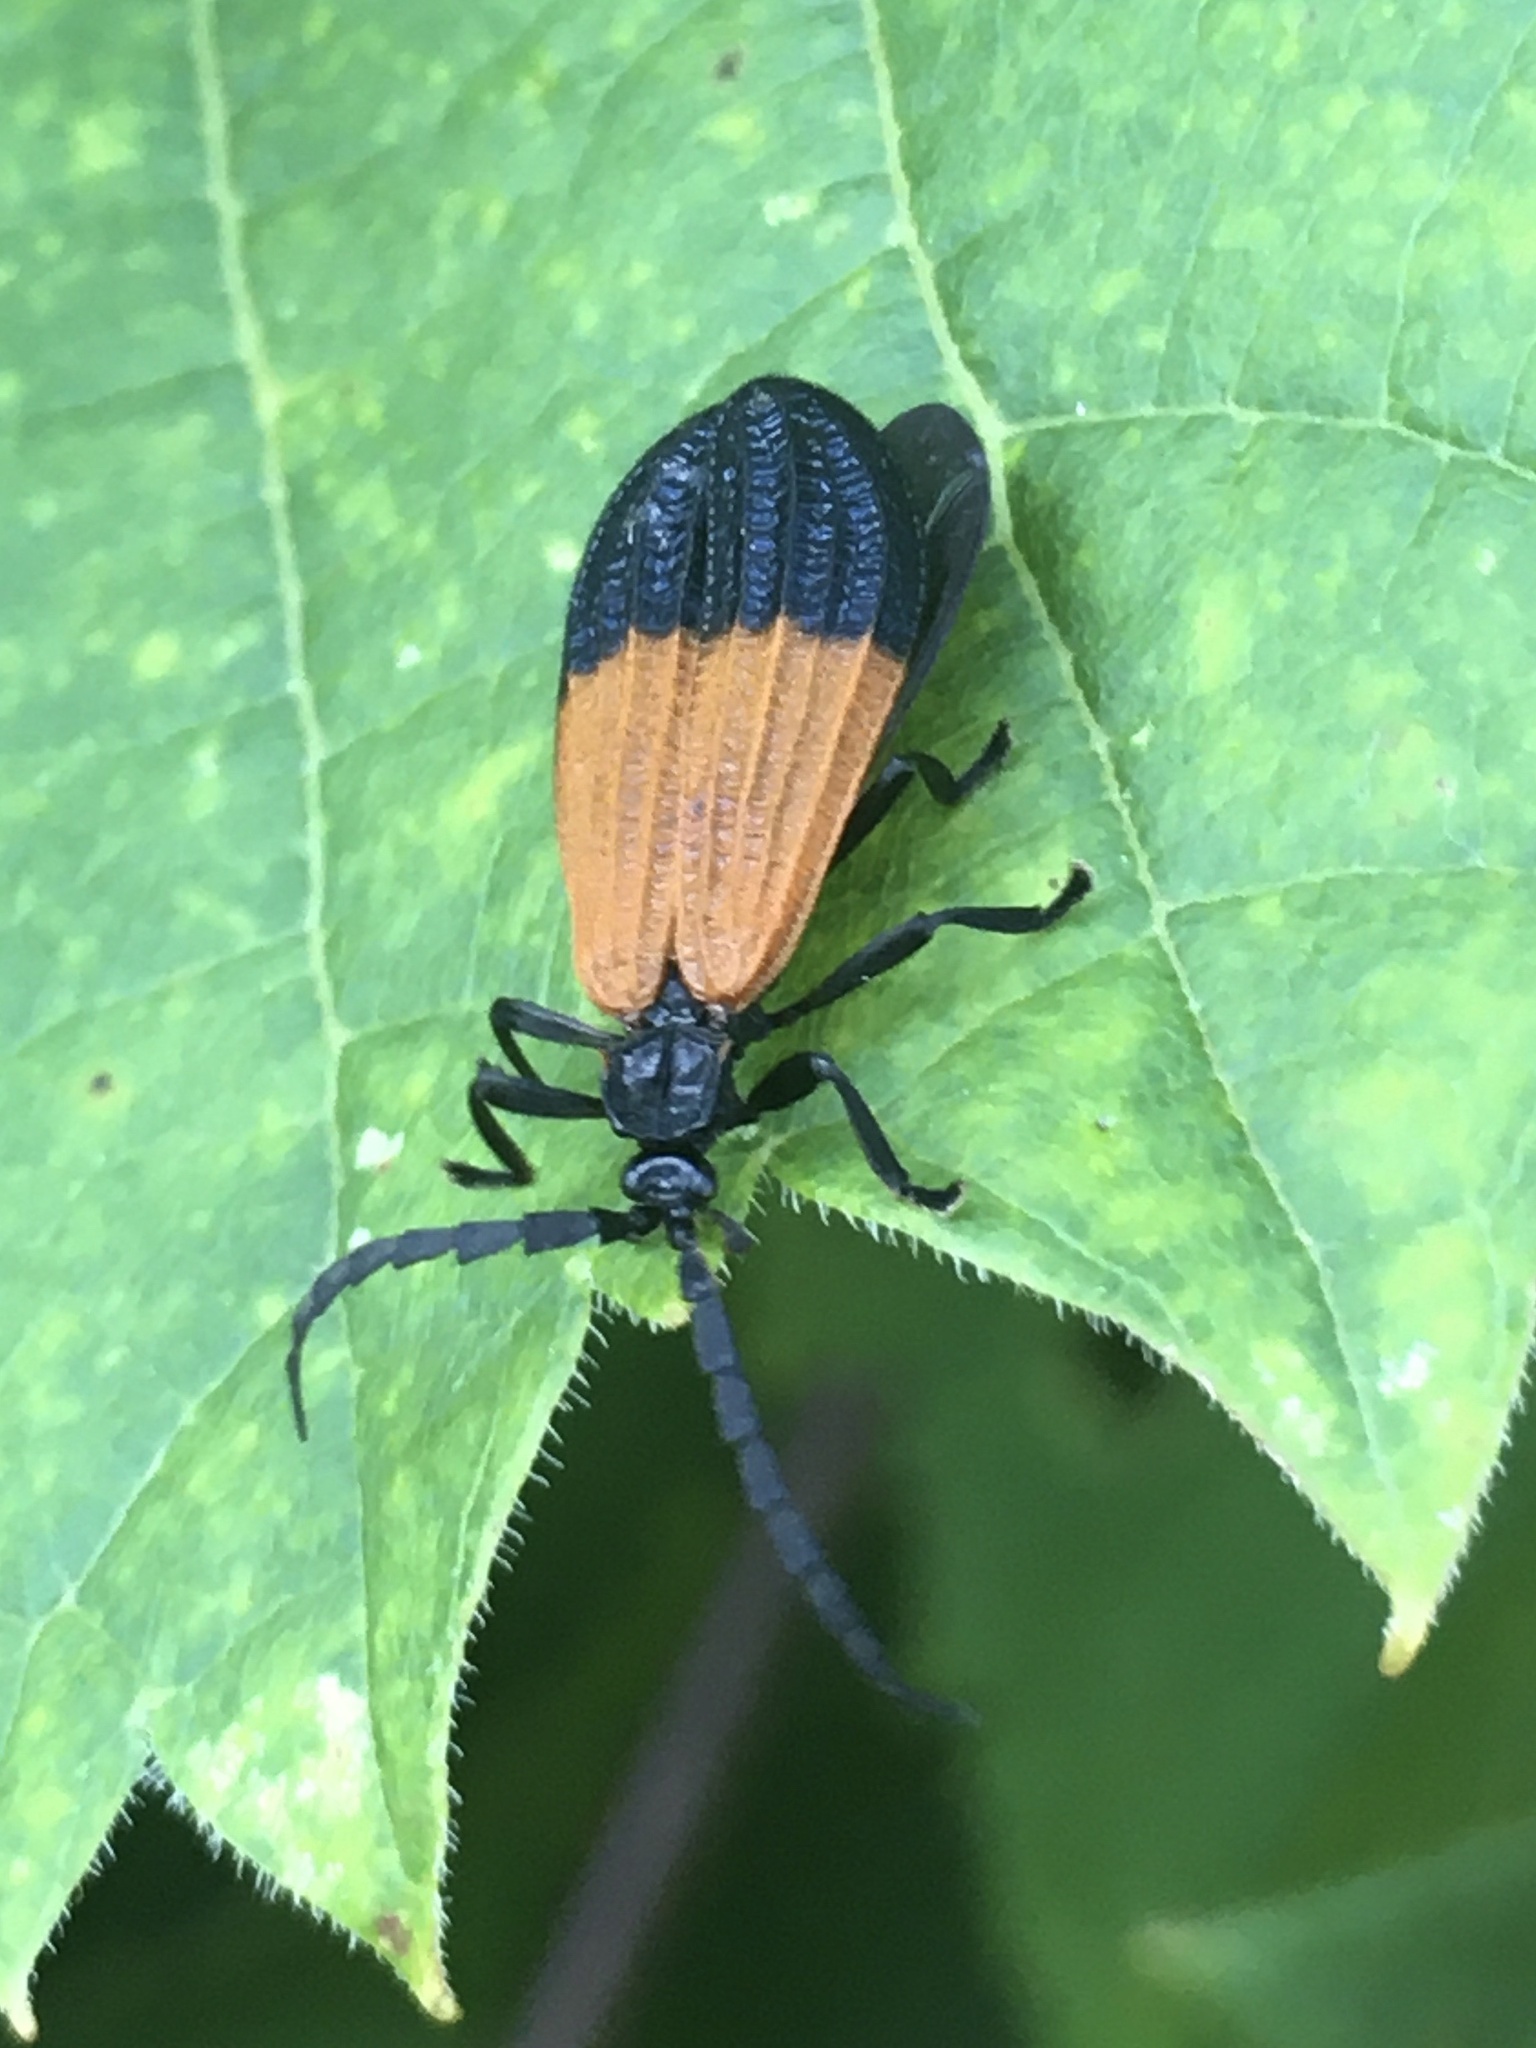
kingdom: Animalia
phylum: Arthropoda
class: Insecta
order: Coleoptera
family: Lycidae
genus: Calopteron
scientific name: Calopteron terminale
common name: End band net-winged beetle
